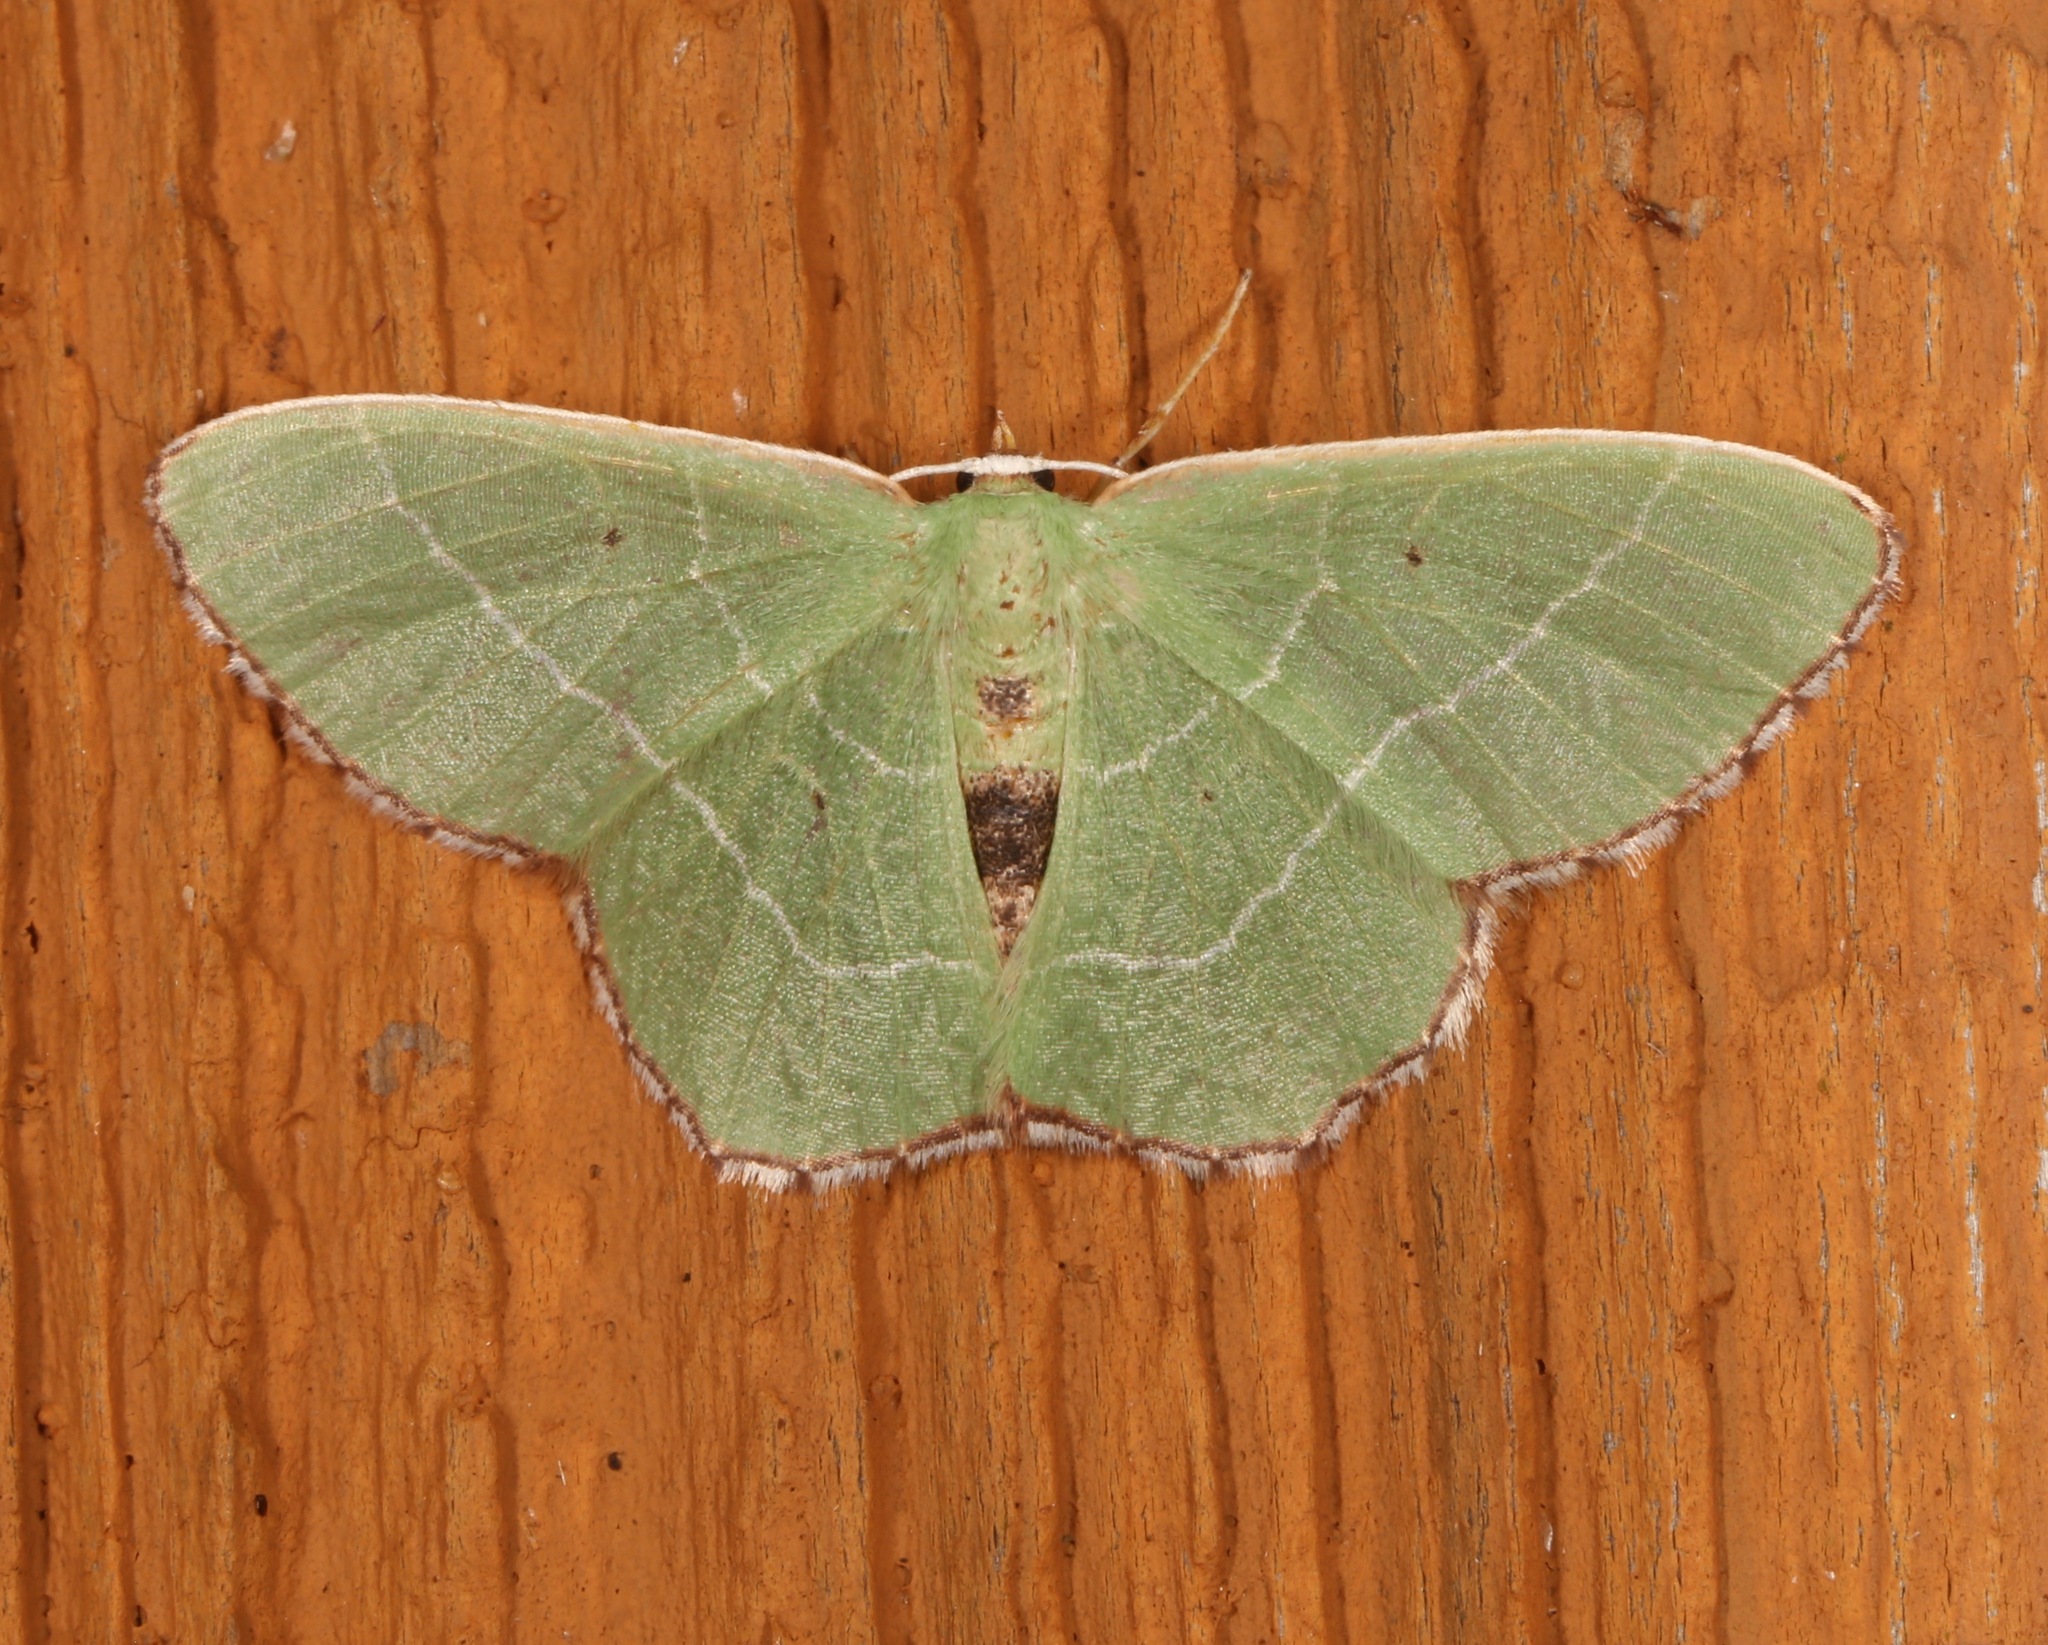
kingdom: Animalia
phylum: Arthropoda
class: Insecta
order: Lepidoptera
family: Geometridae
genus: Nemoria
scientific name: Nemoria saturiba
